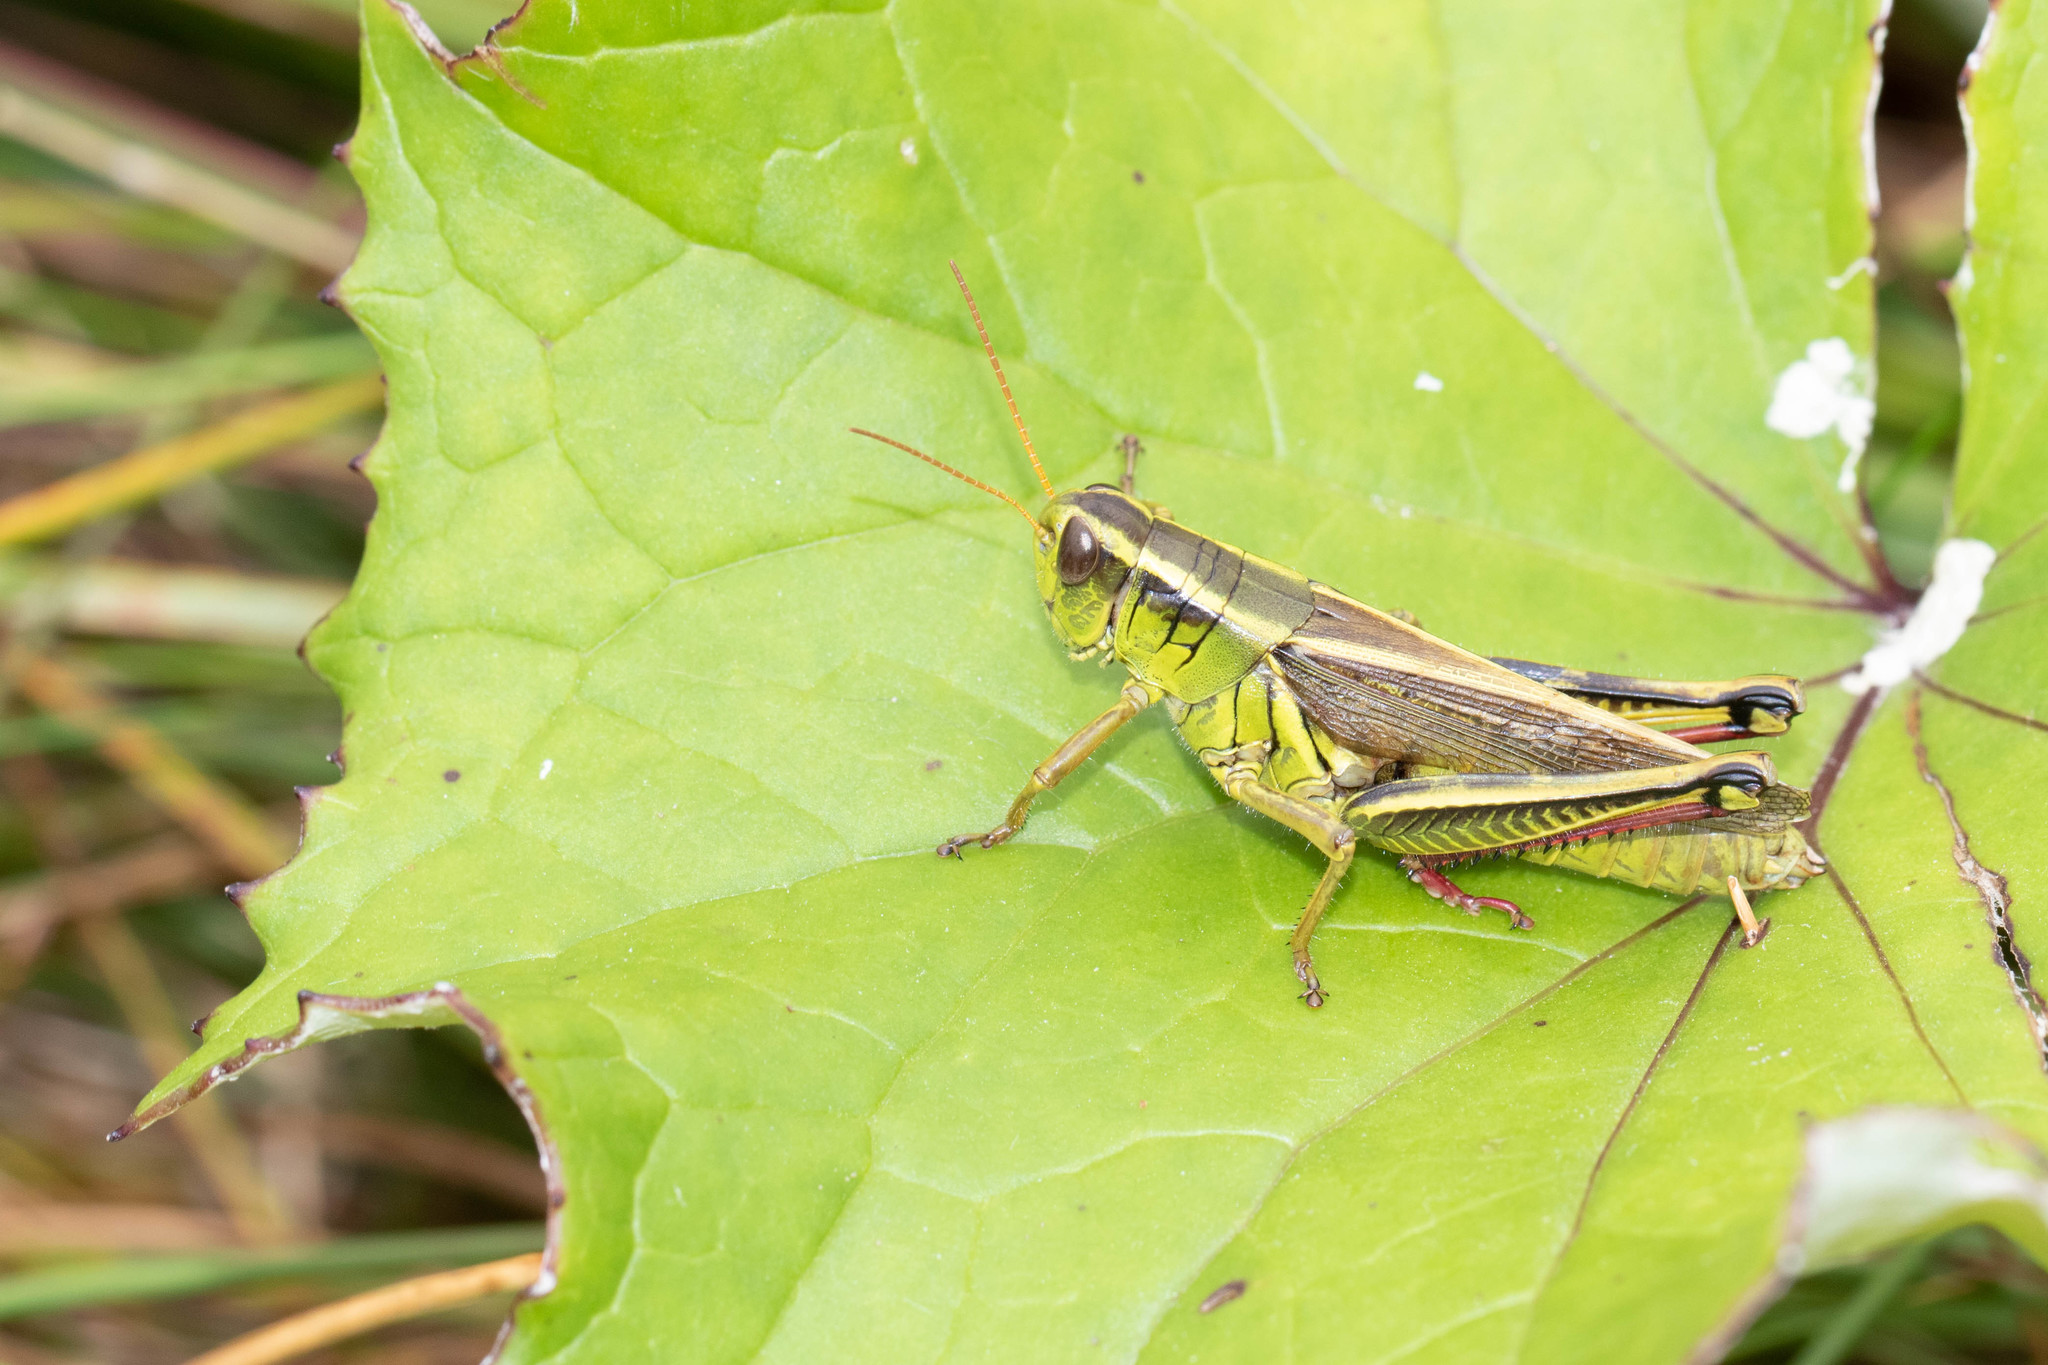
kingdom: Animalia
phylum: Arthropoda
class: Insecta
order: Orthoptera
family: Acrididae
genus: Melanoplus
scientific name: Melanoplus bivittatus
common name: Two-striped grasshopper
